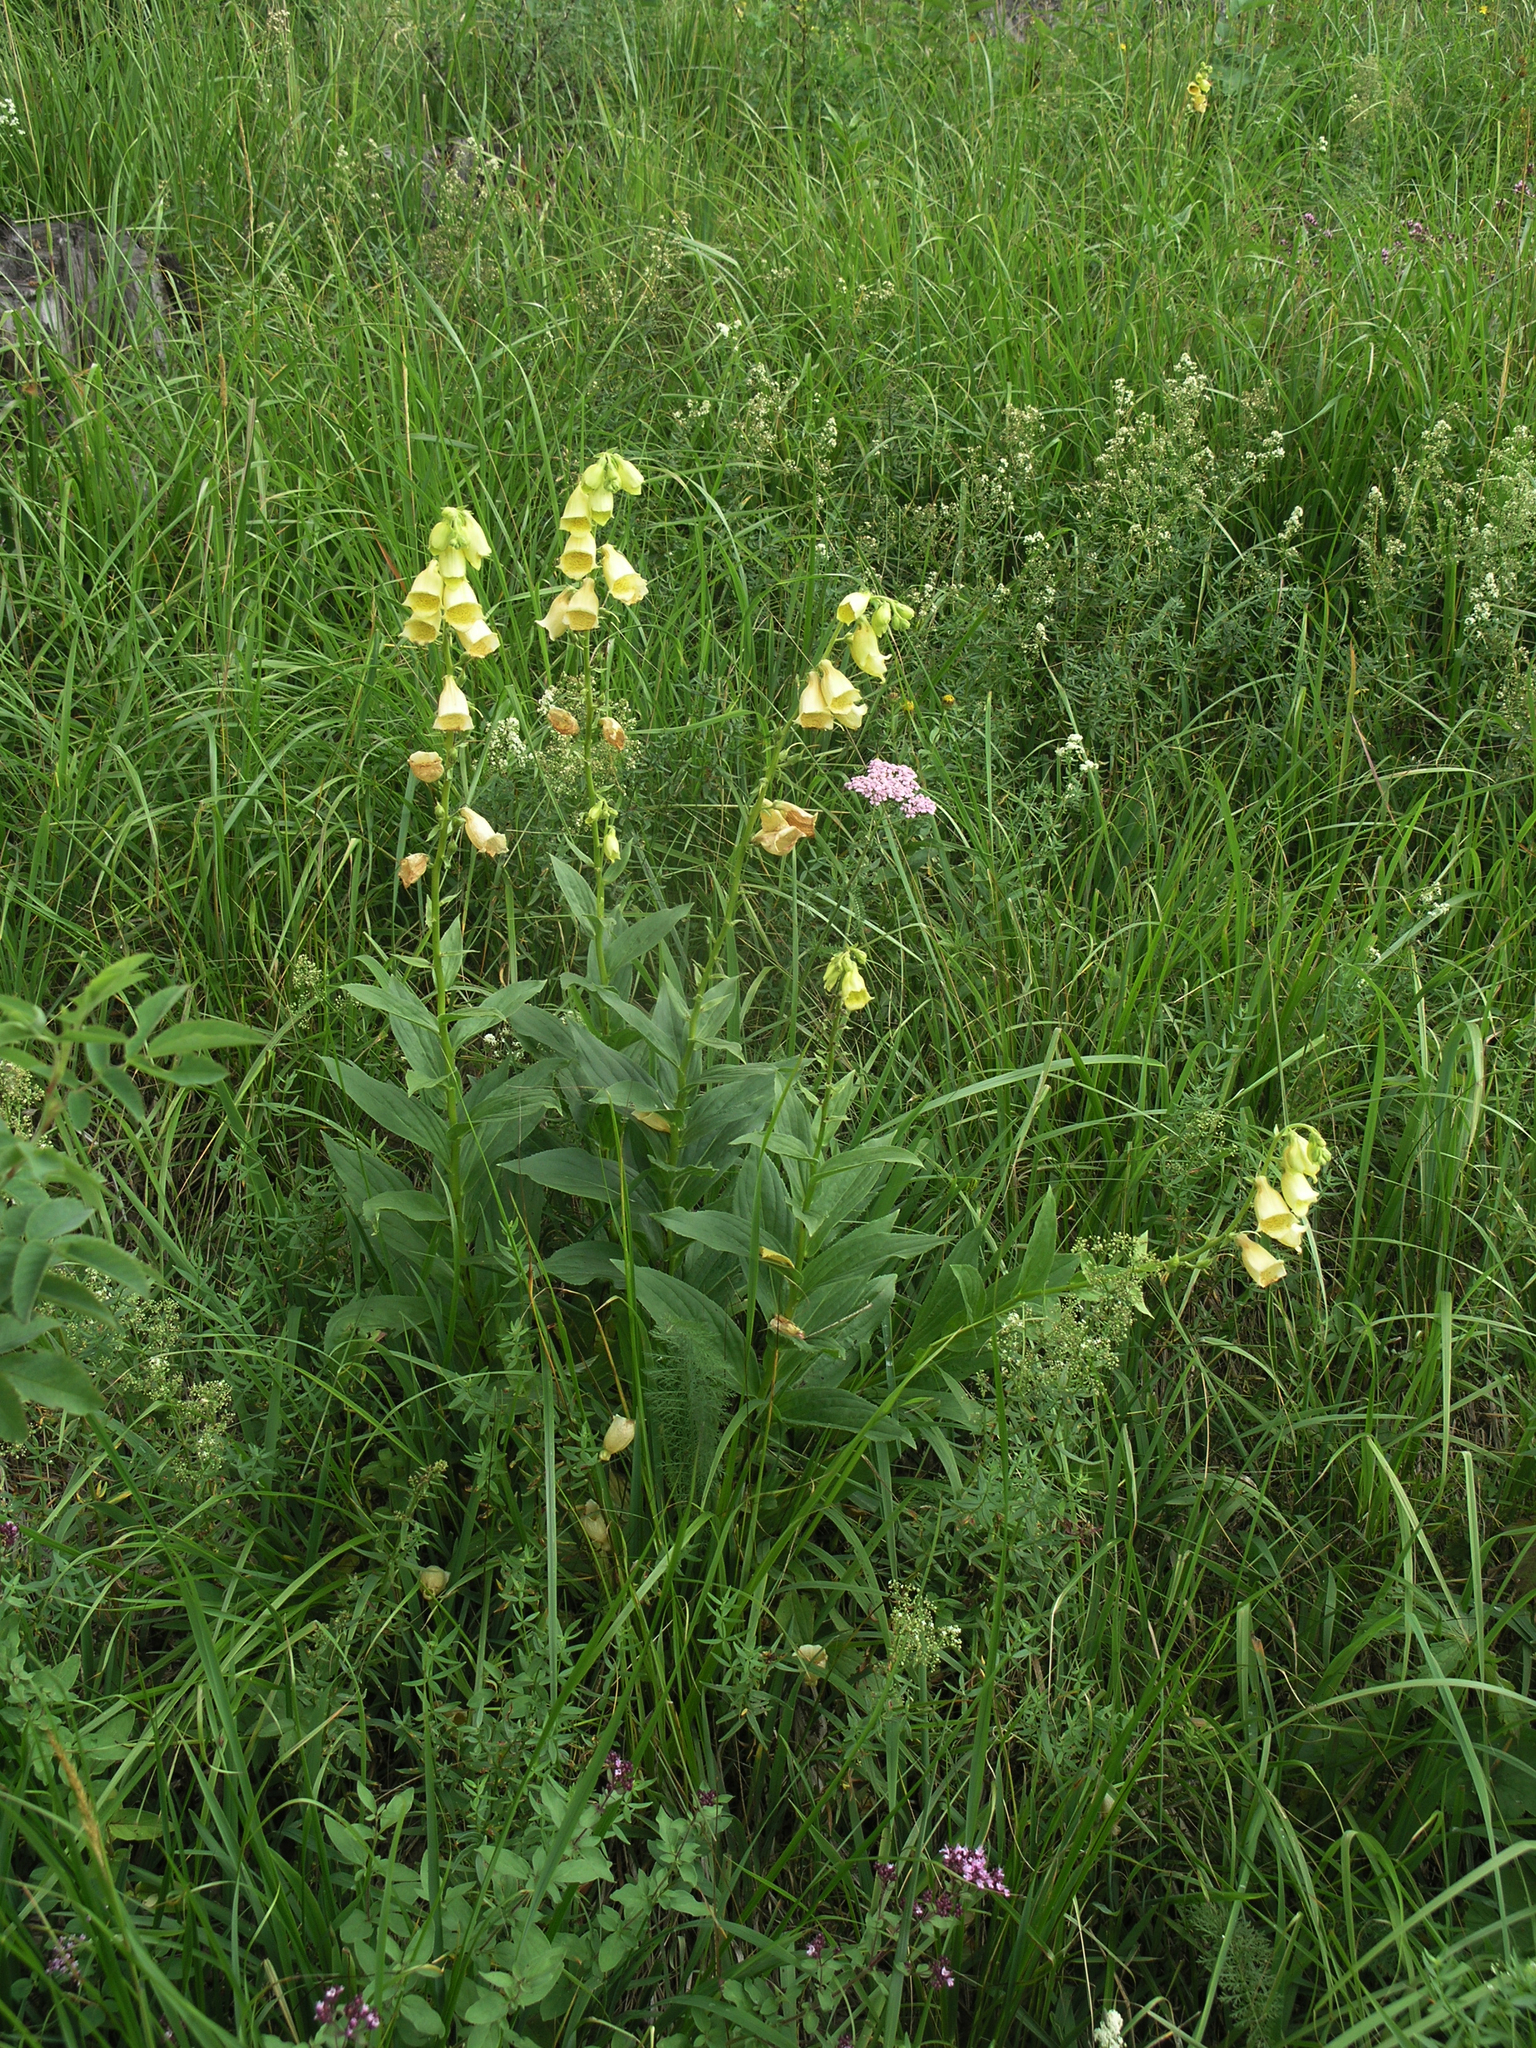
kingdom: Plantae
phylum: Tracheophyta
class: Magnoliopsida
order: Lamiales
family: Plantaginaceae
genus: Digitalis
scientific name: Digitalis grandiflora
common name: Yellow foxglove
